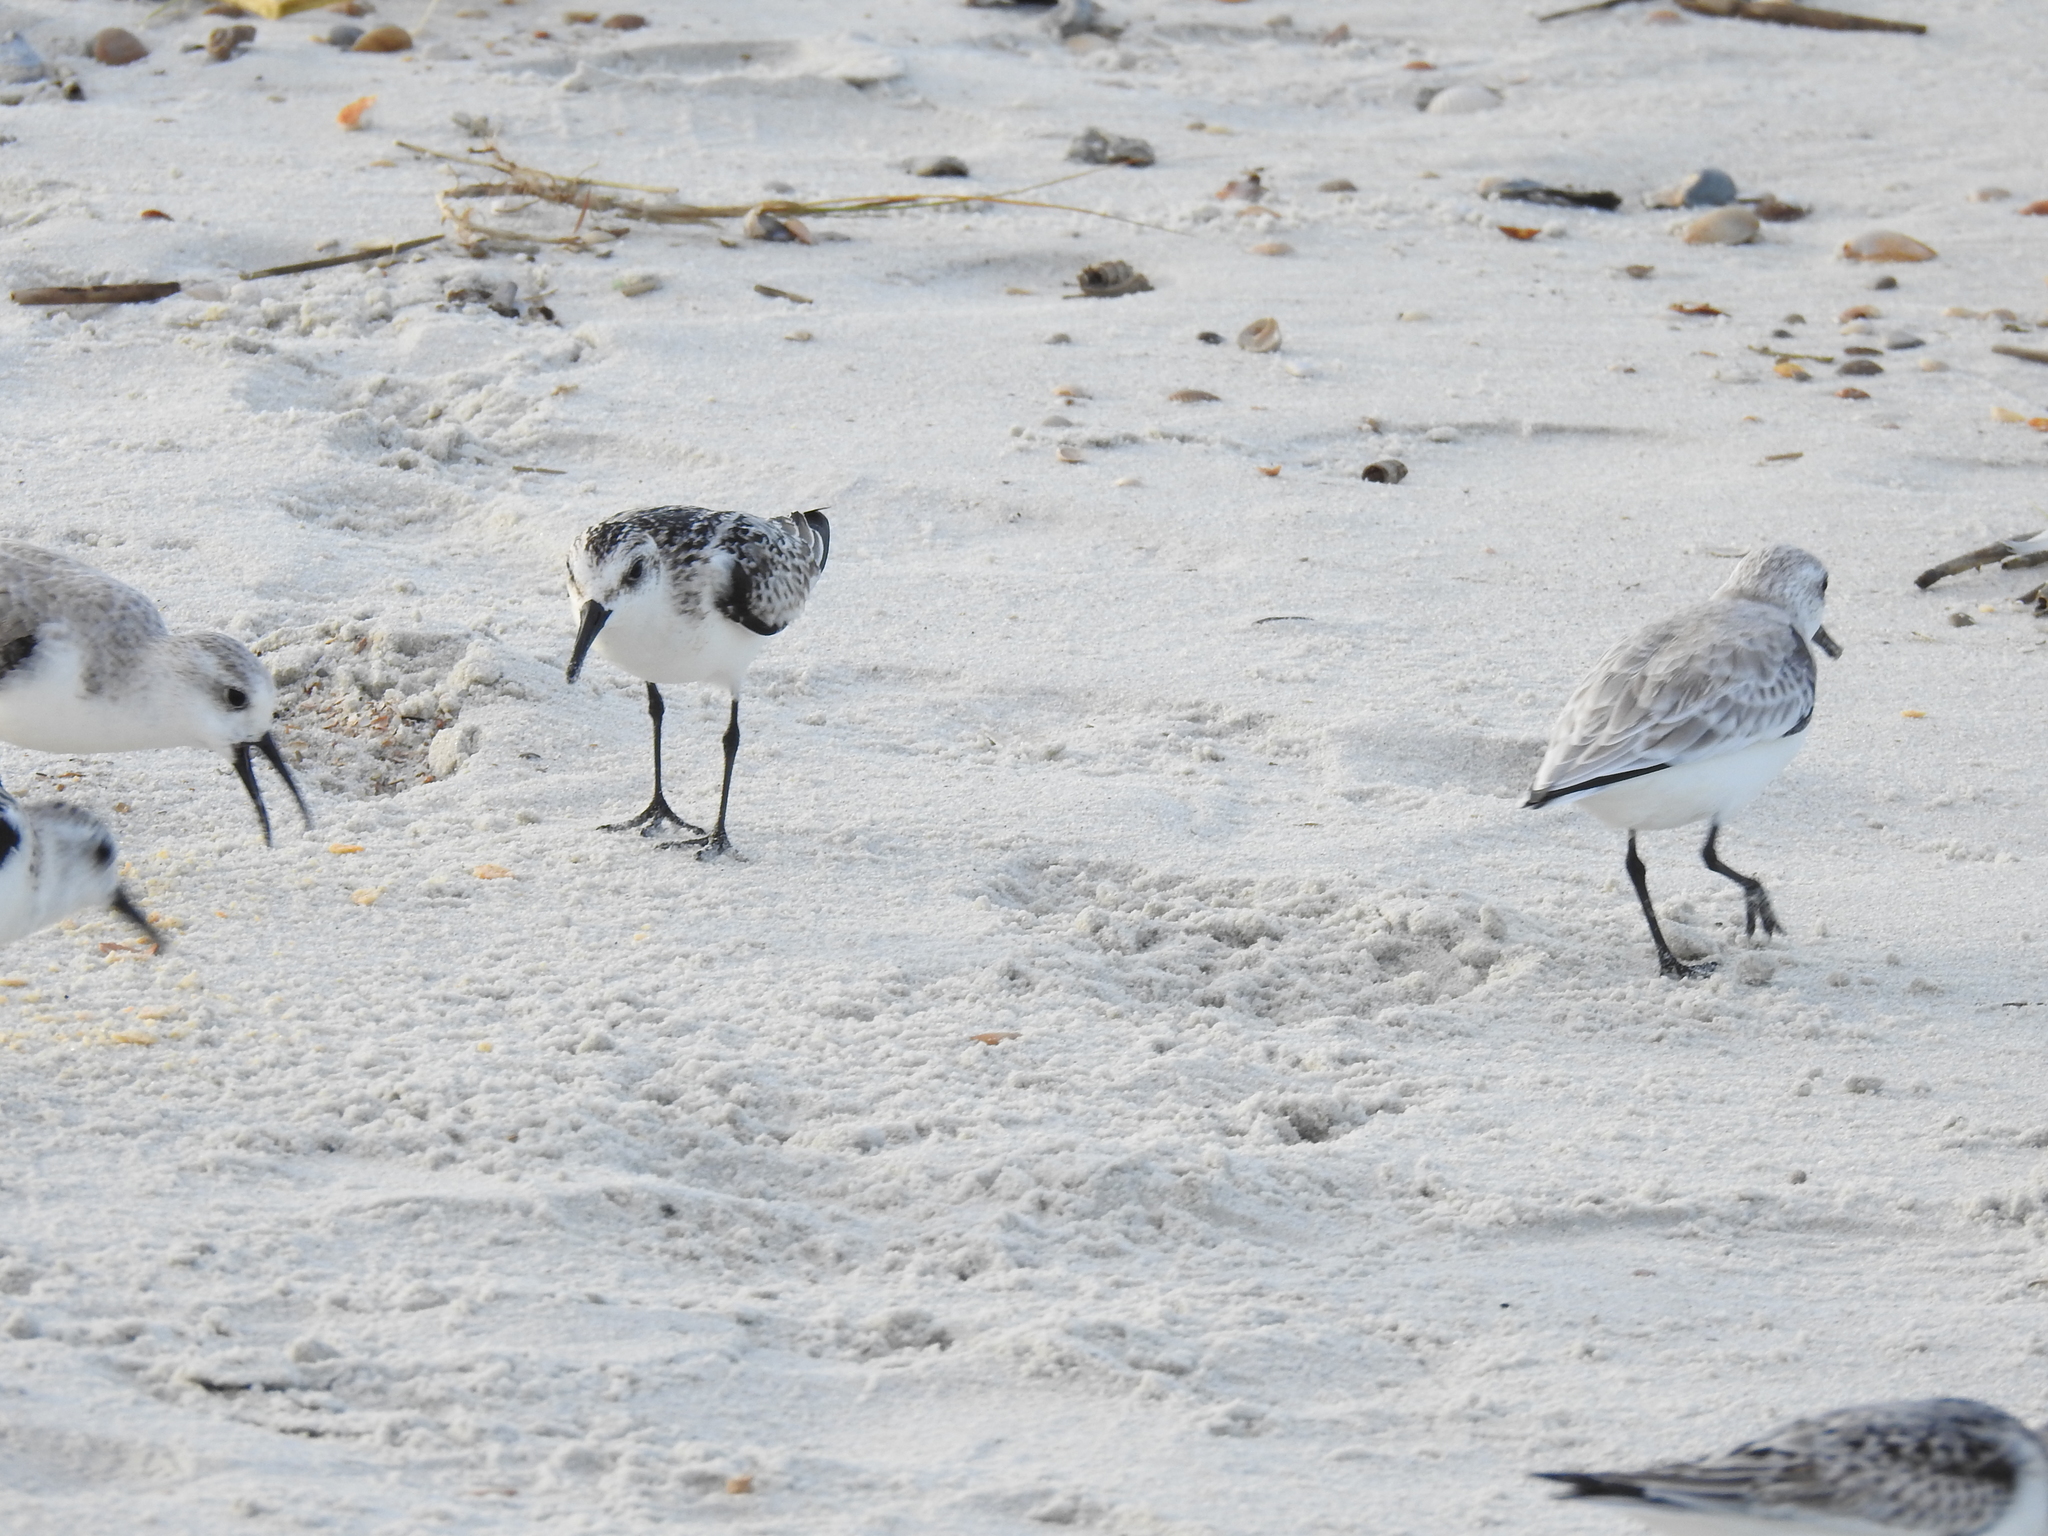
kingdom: Animalia
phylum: Chordata
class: Aves
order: Charadriiformes
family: Scolopacidae
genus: Calidris
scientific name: Calidris alba
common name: Sanderling
